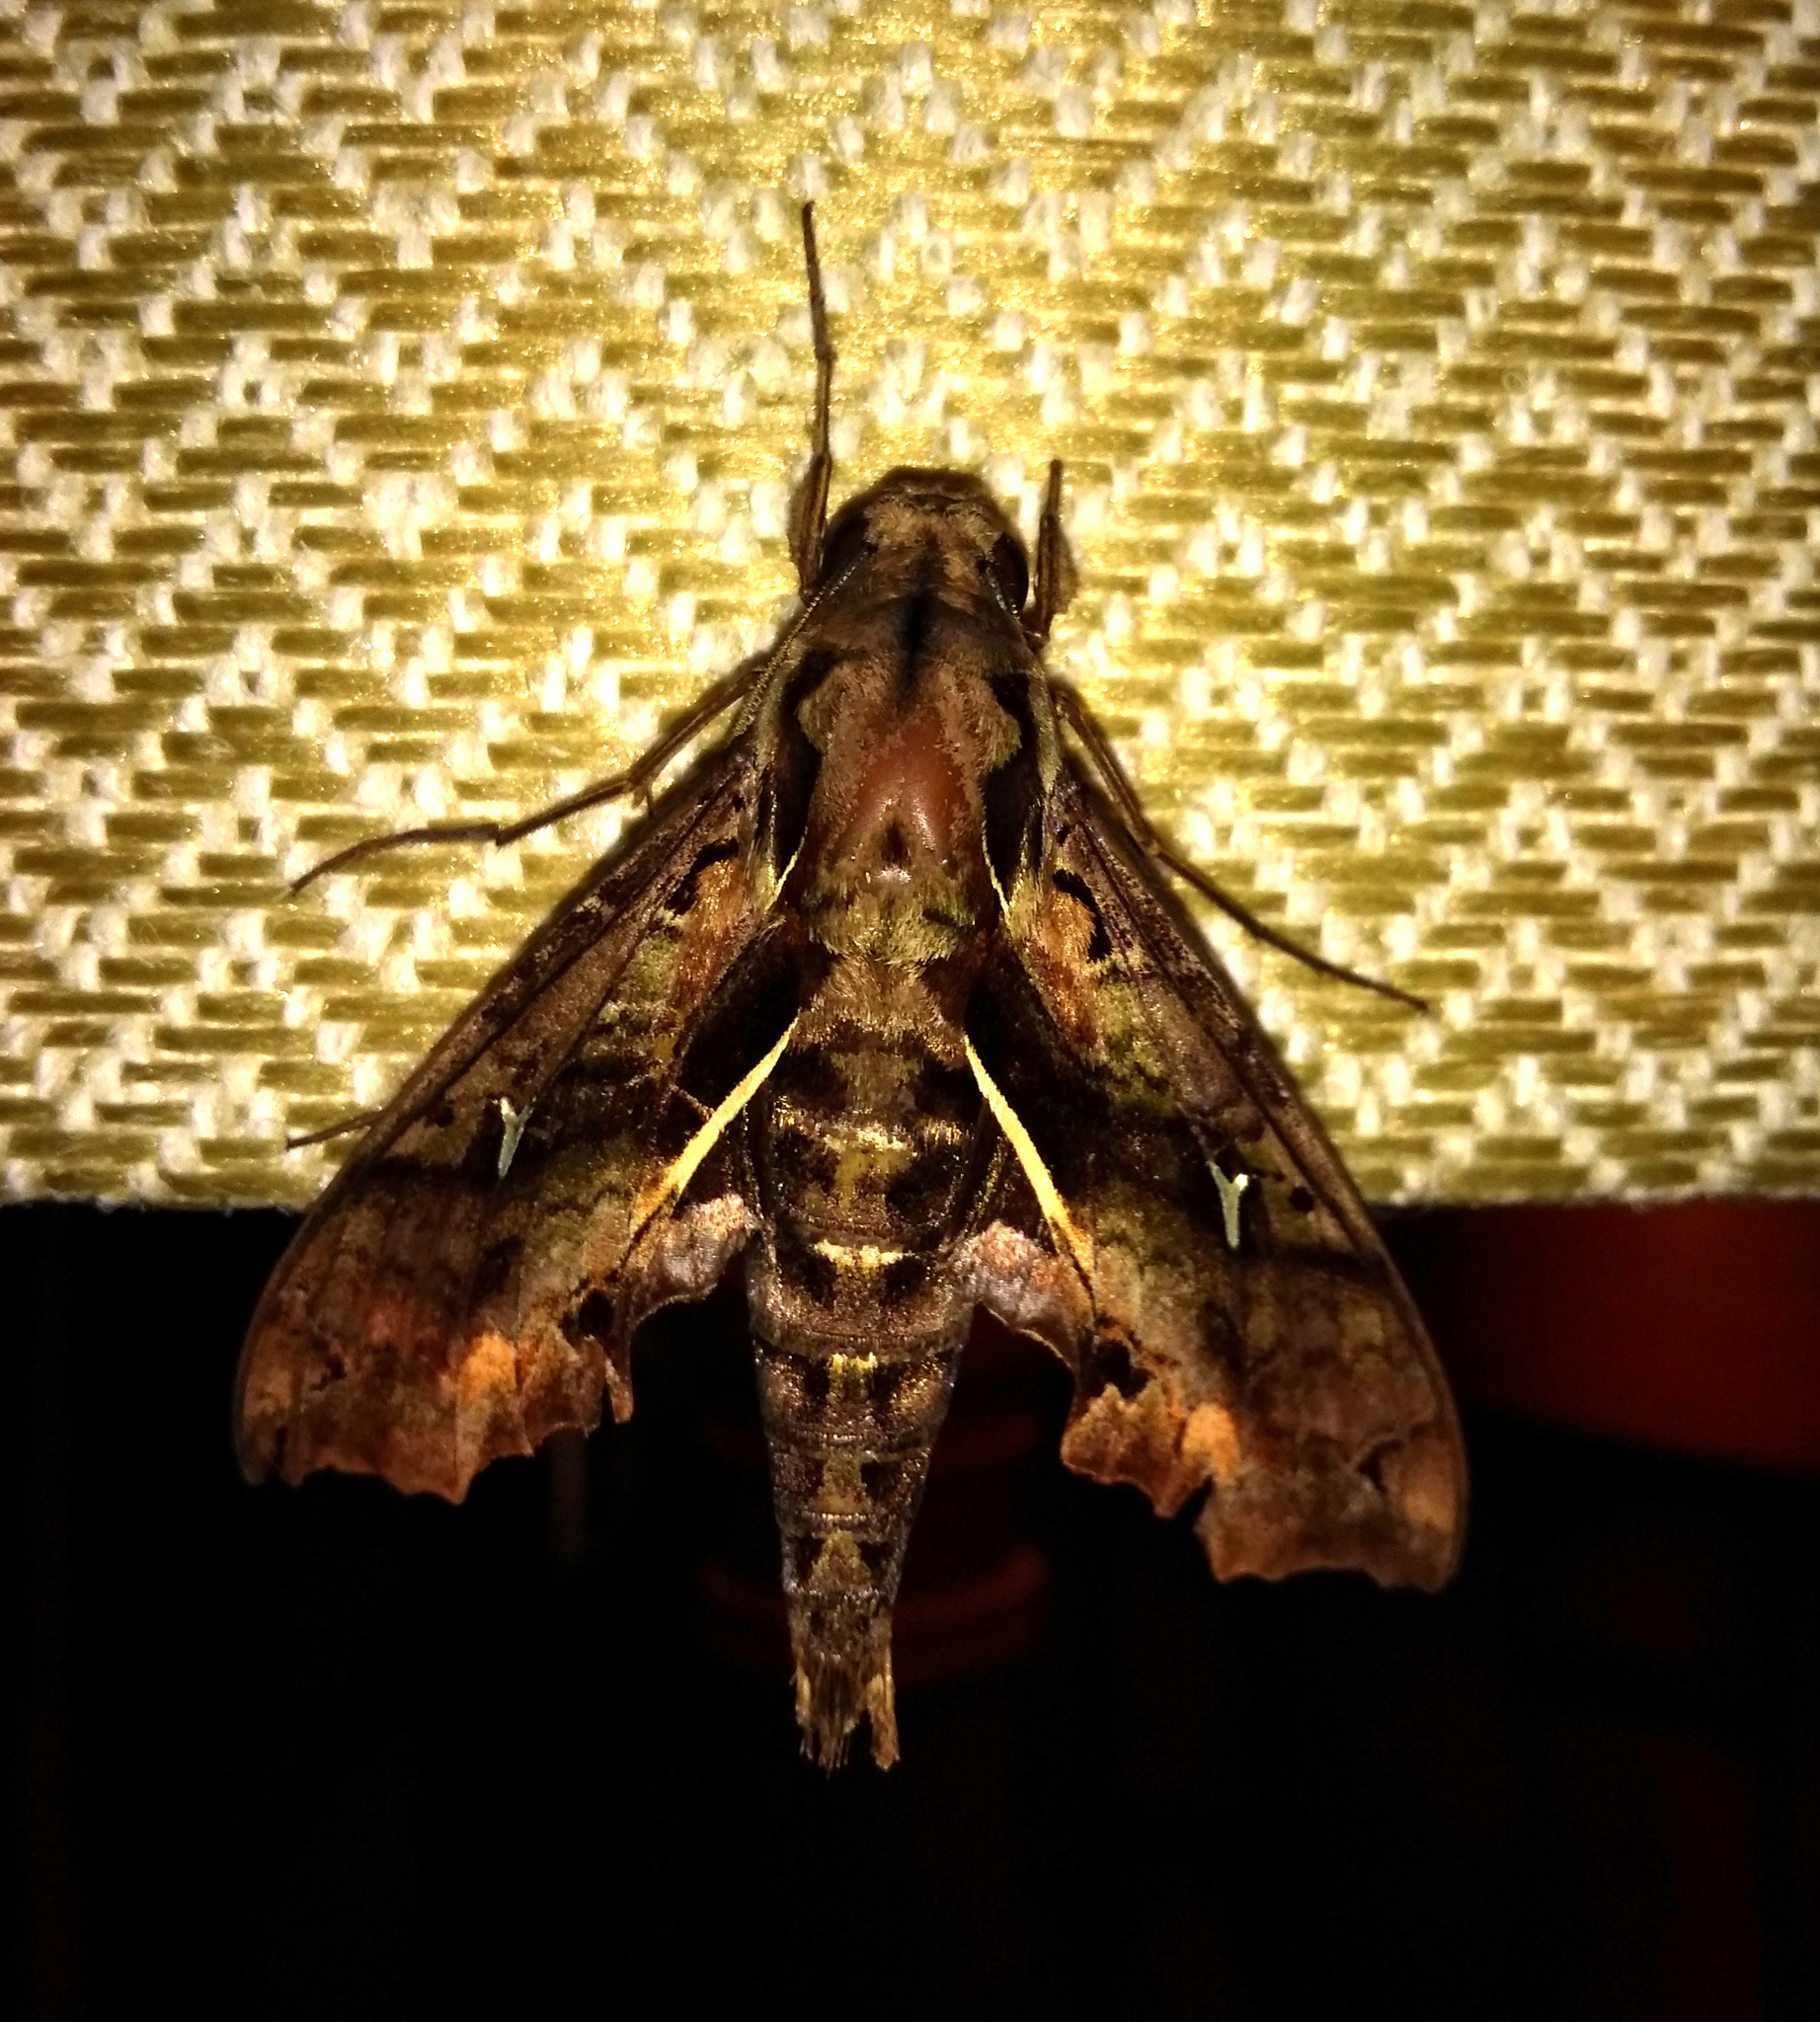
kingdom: Animalia
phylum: Arthropoda
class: Insecta
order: Lepidoptera
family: Sphingidae
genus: Hemeroplanes
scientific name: Hemeroplanes ornatus
